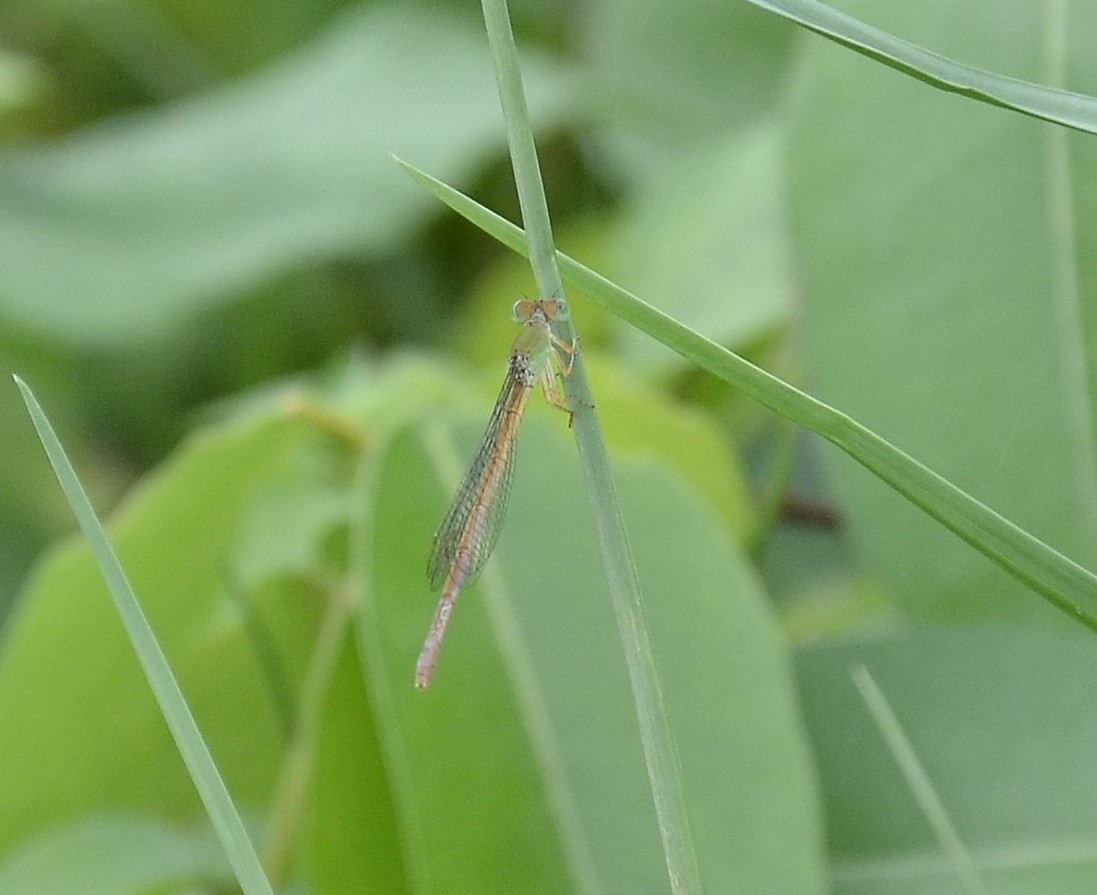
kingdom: Animalia
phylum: Arthropoda
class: Insecta
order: Odonata
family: Coenagrionidae
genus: Ceriagrion
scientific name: Ceriagrion coromandelianum
